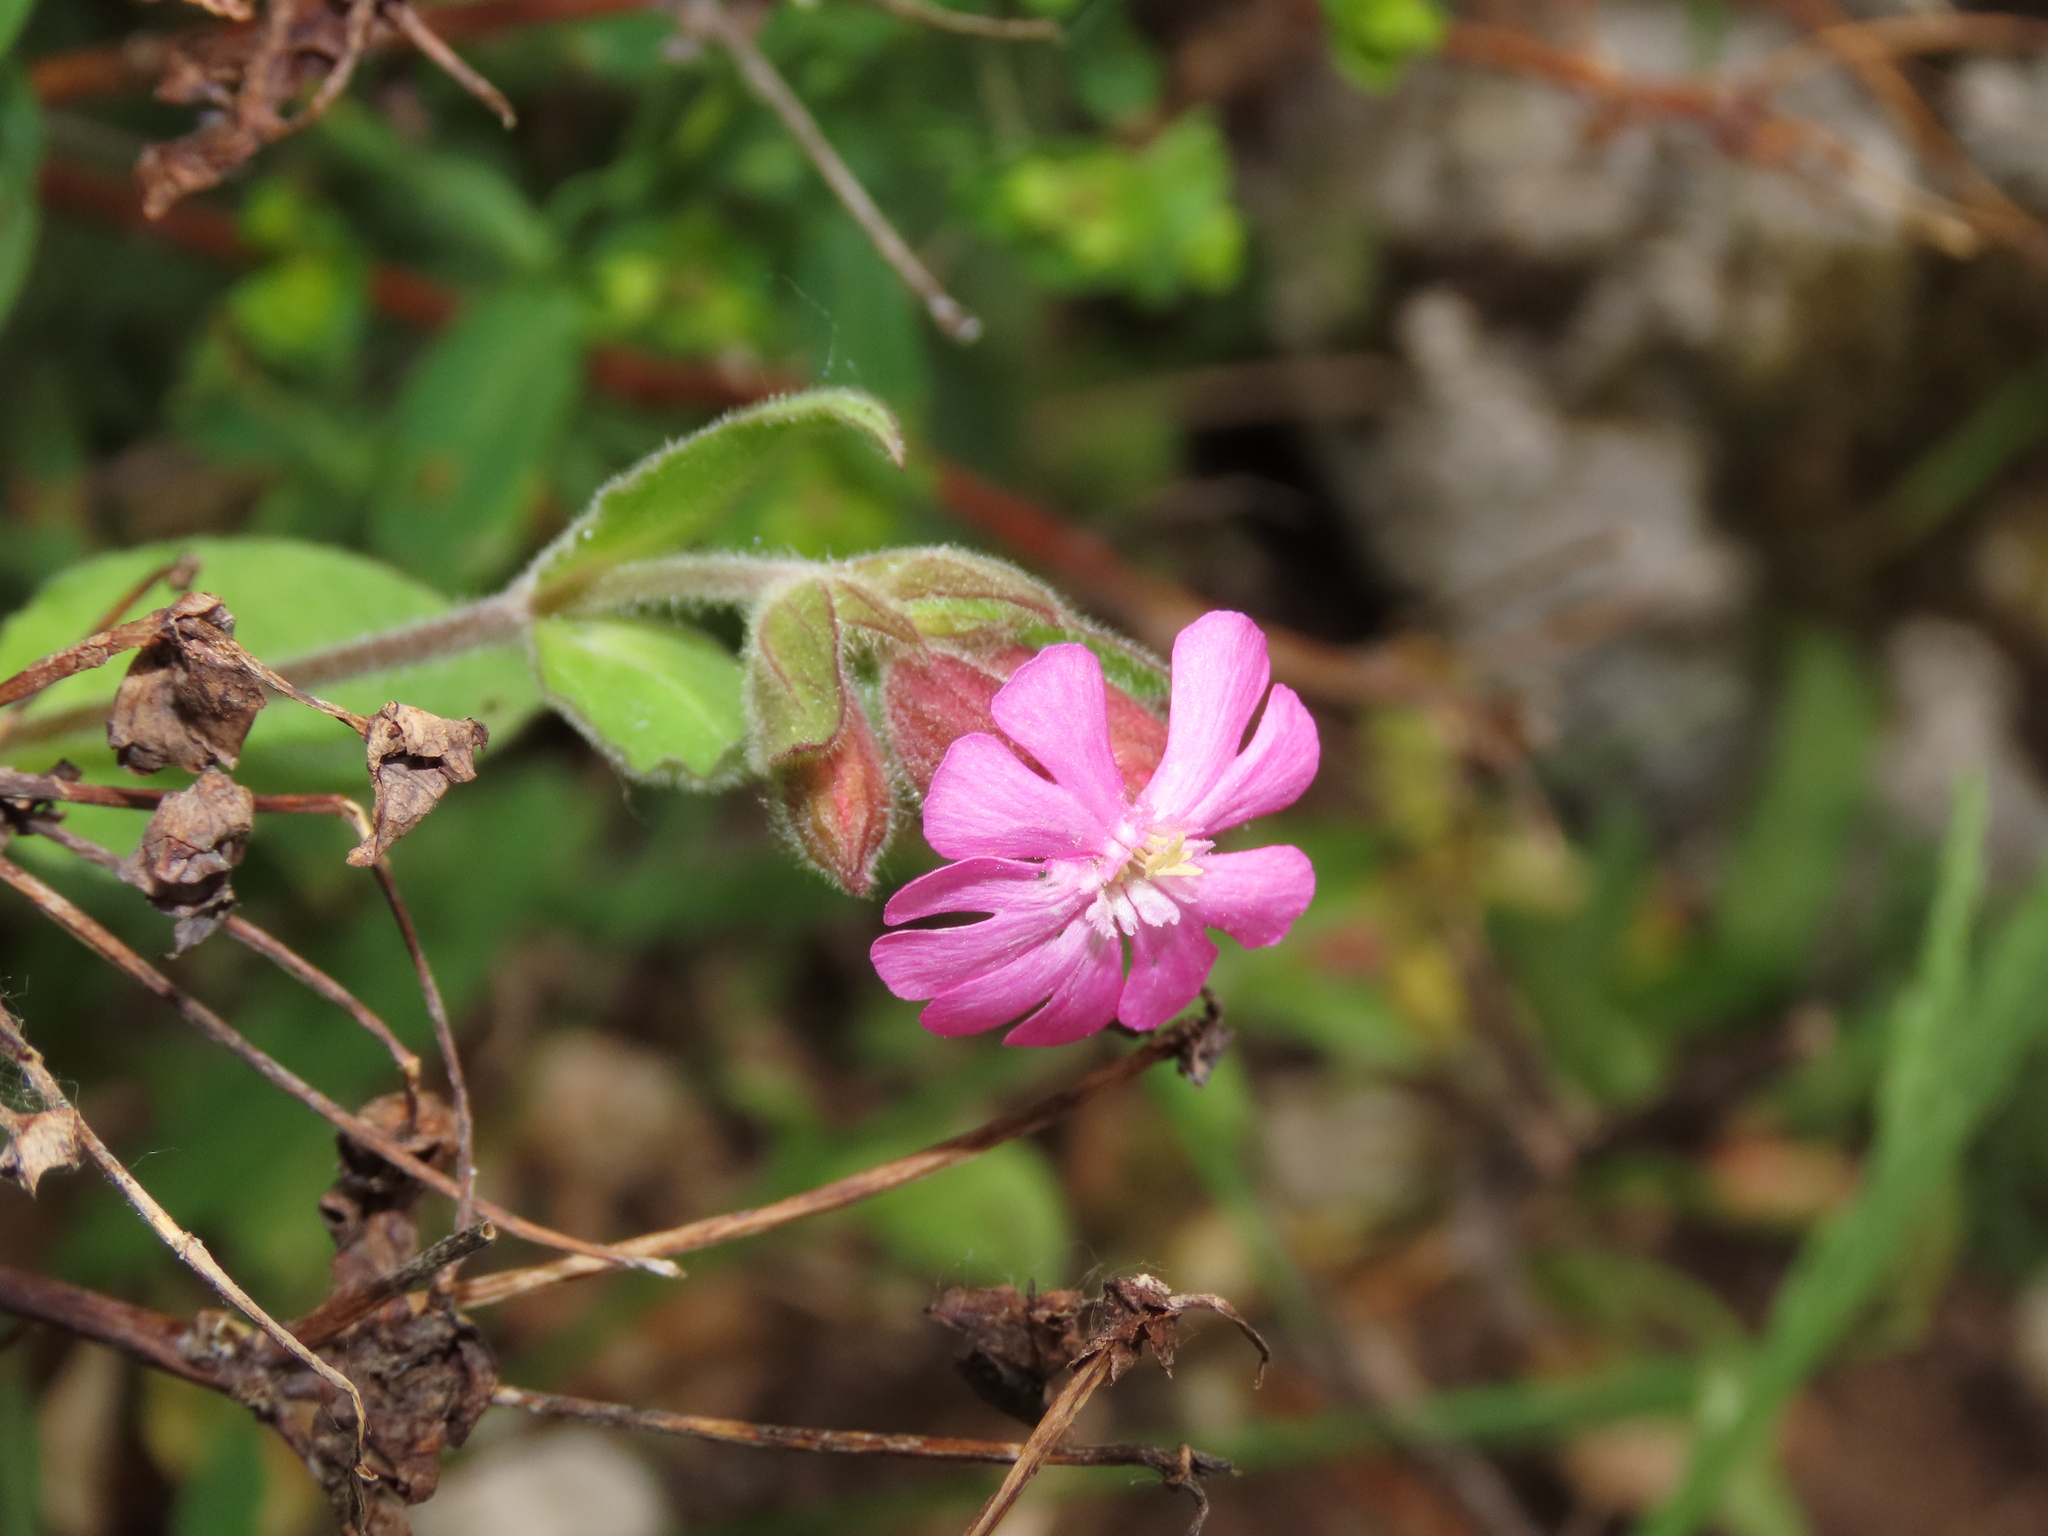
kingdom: Plantae
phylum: Tracheophyta
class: Magnoliopsida
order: Caryophyllales
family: Caryophyllaceae
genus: Silene
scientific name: Silene dioica
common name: Red campion
